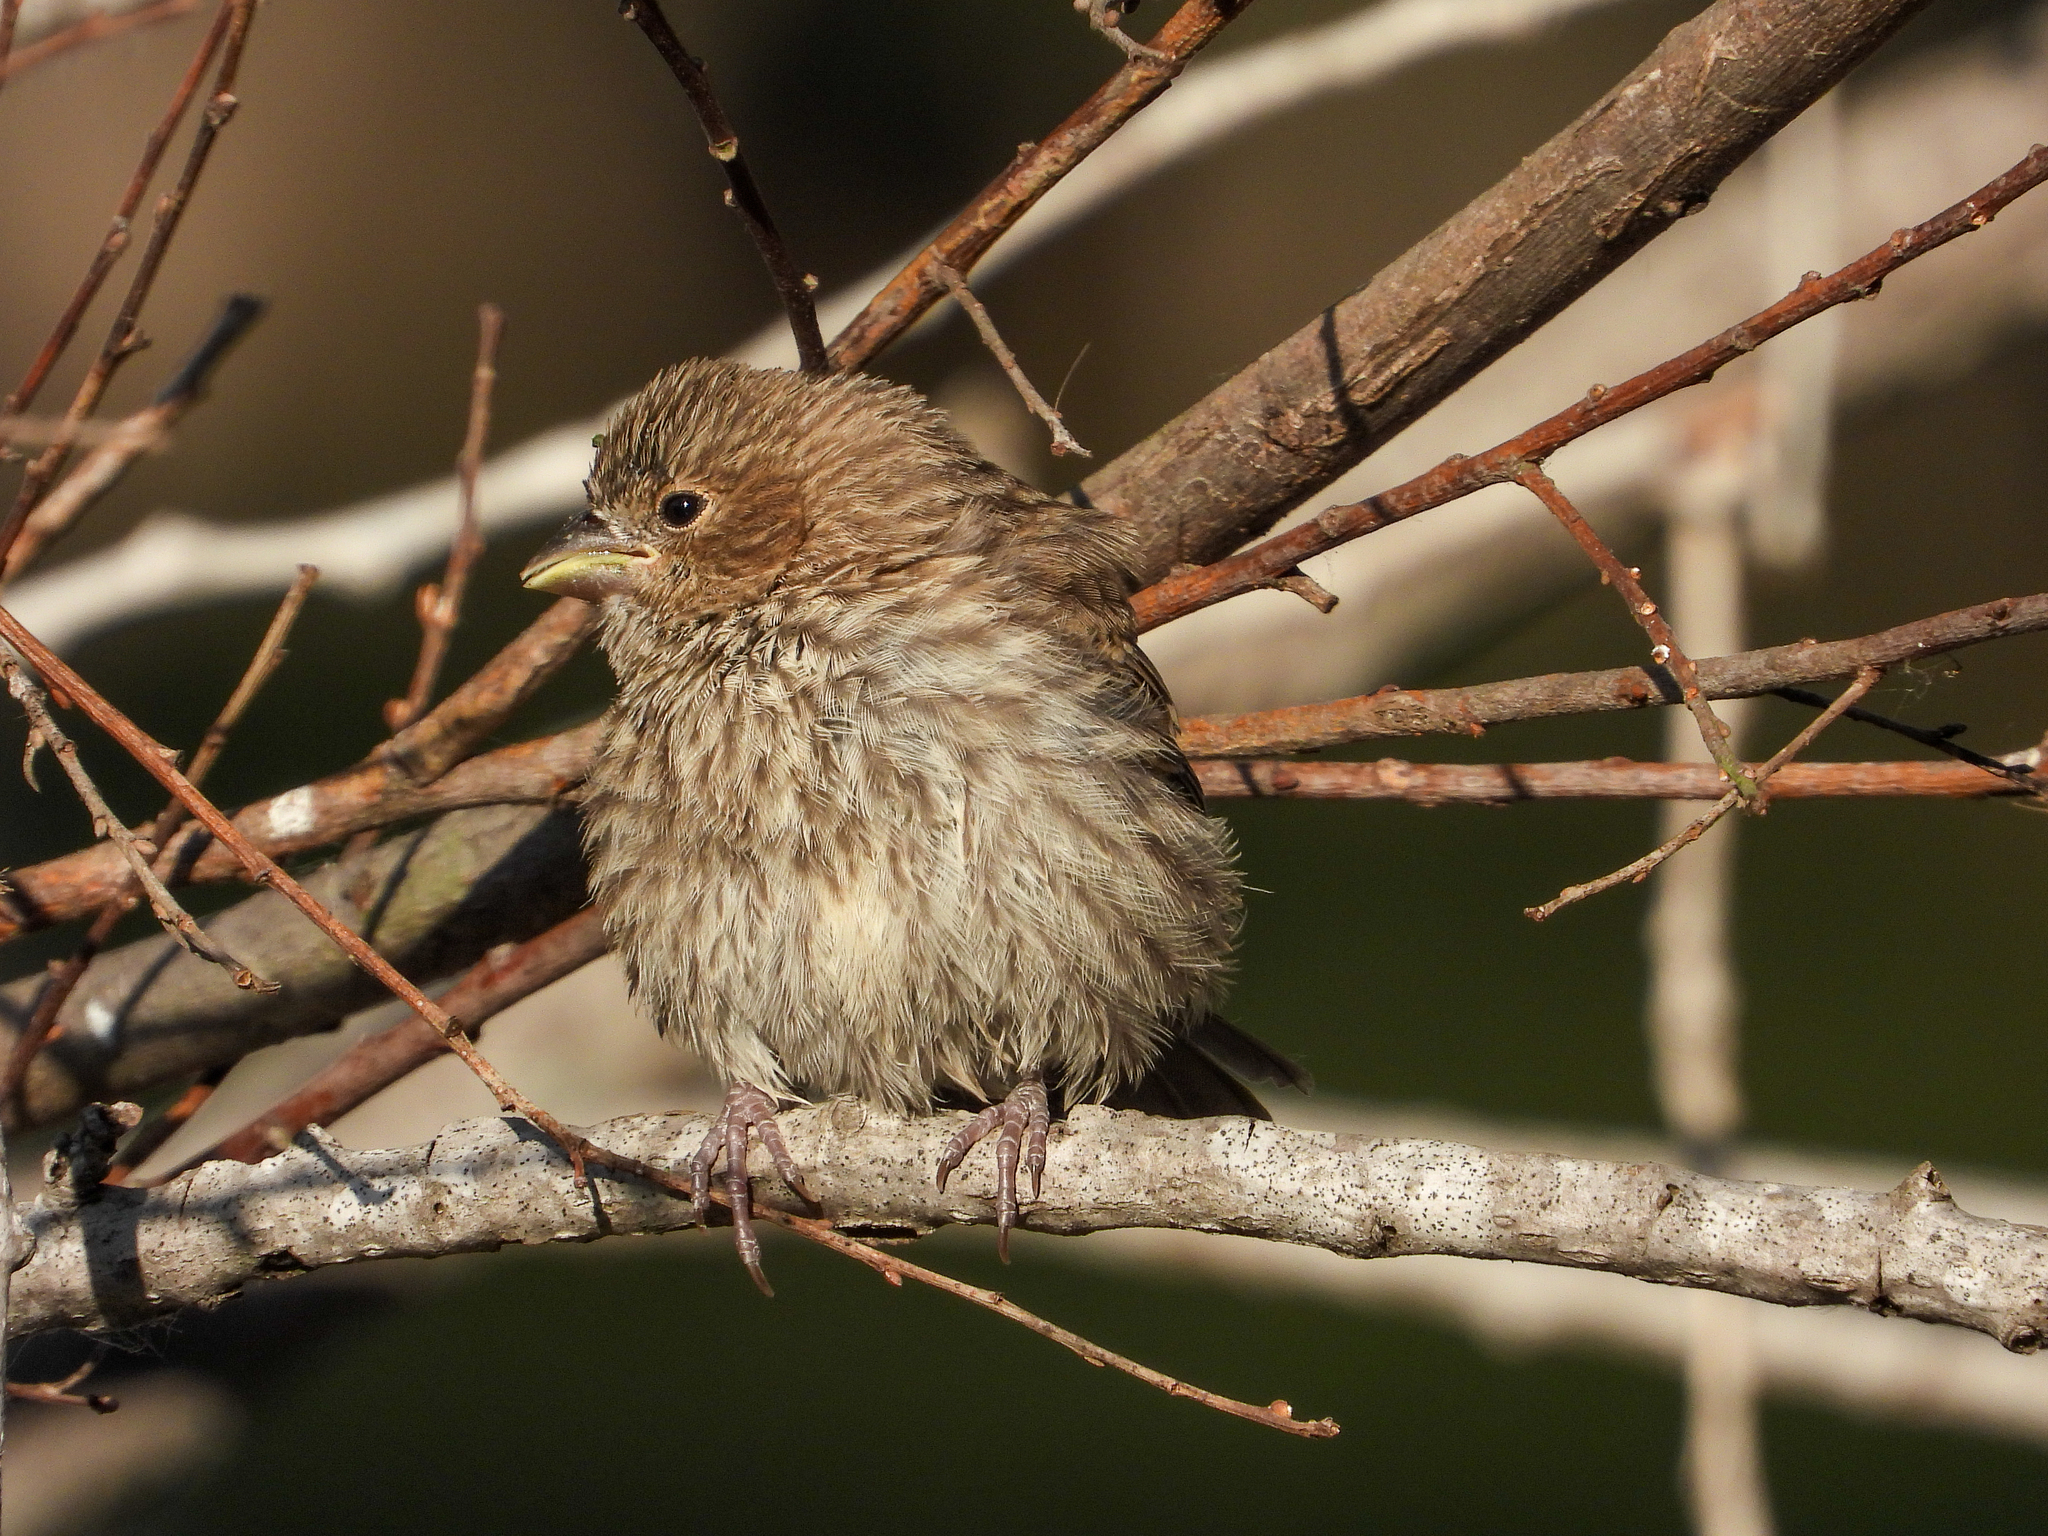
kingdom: Animalia
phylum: Chordata
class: Aves
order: Passeriformes
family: Fringillidae
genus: Haemorhous
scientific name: Haemorhous mexicanus
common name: House finch
